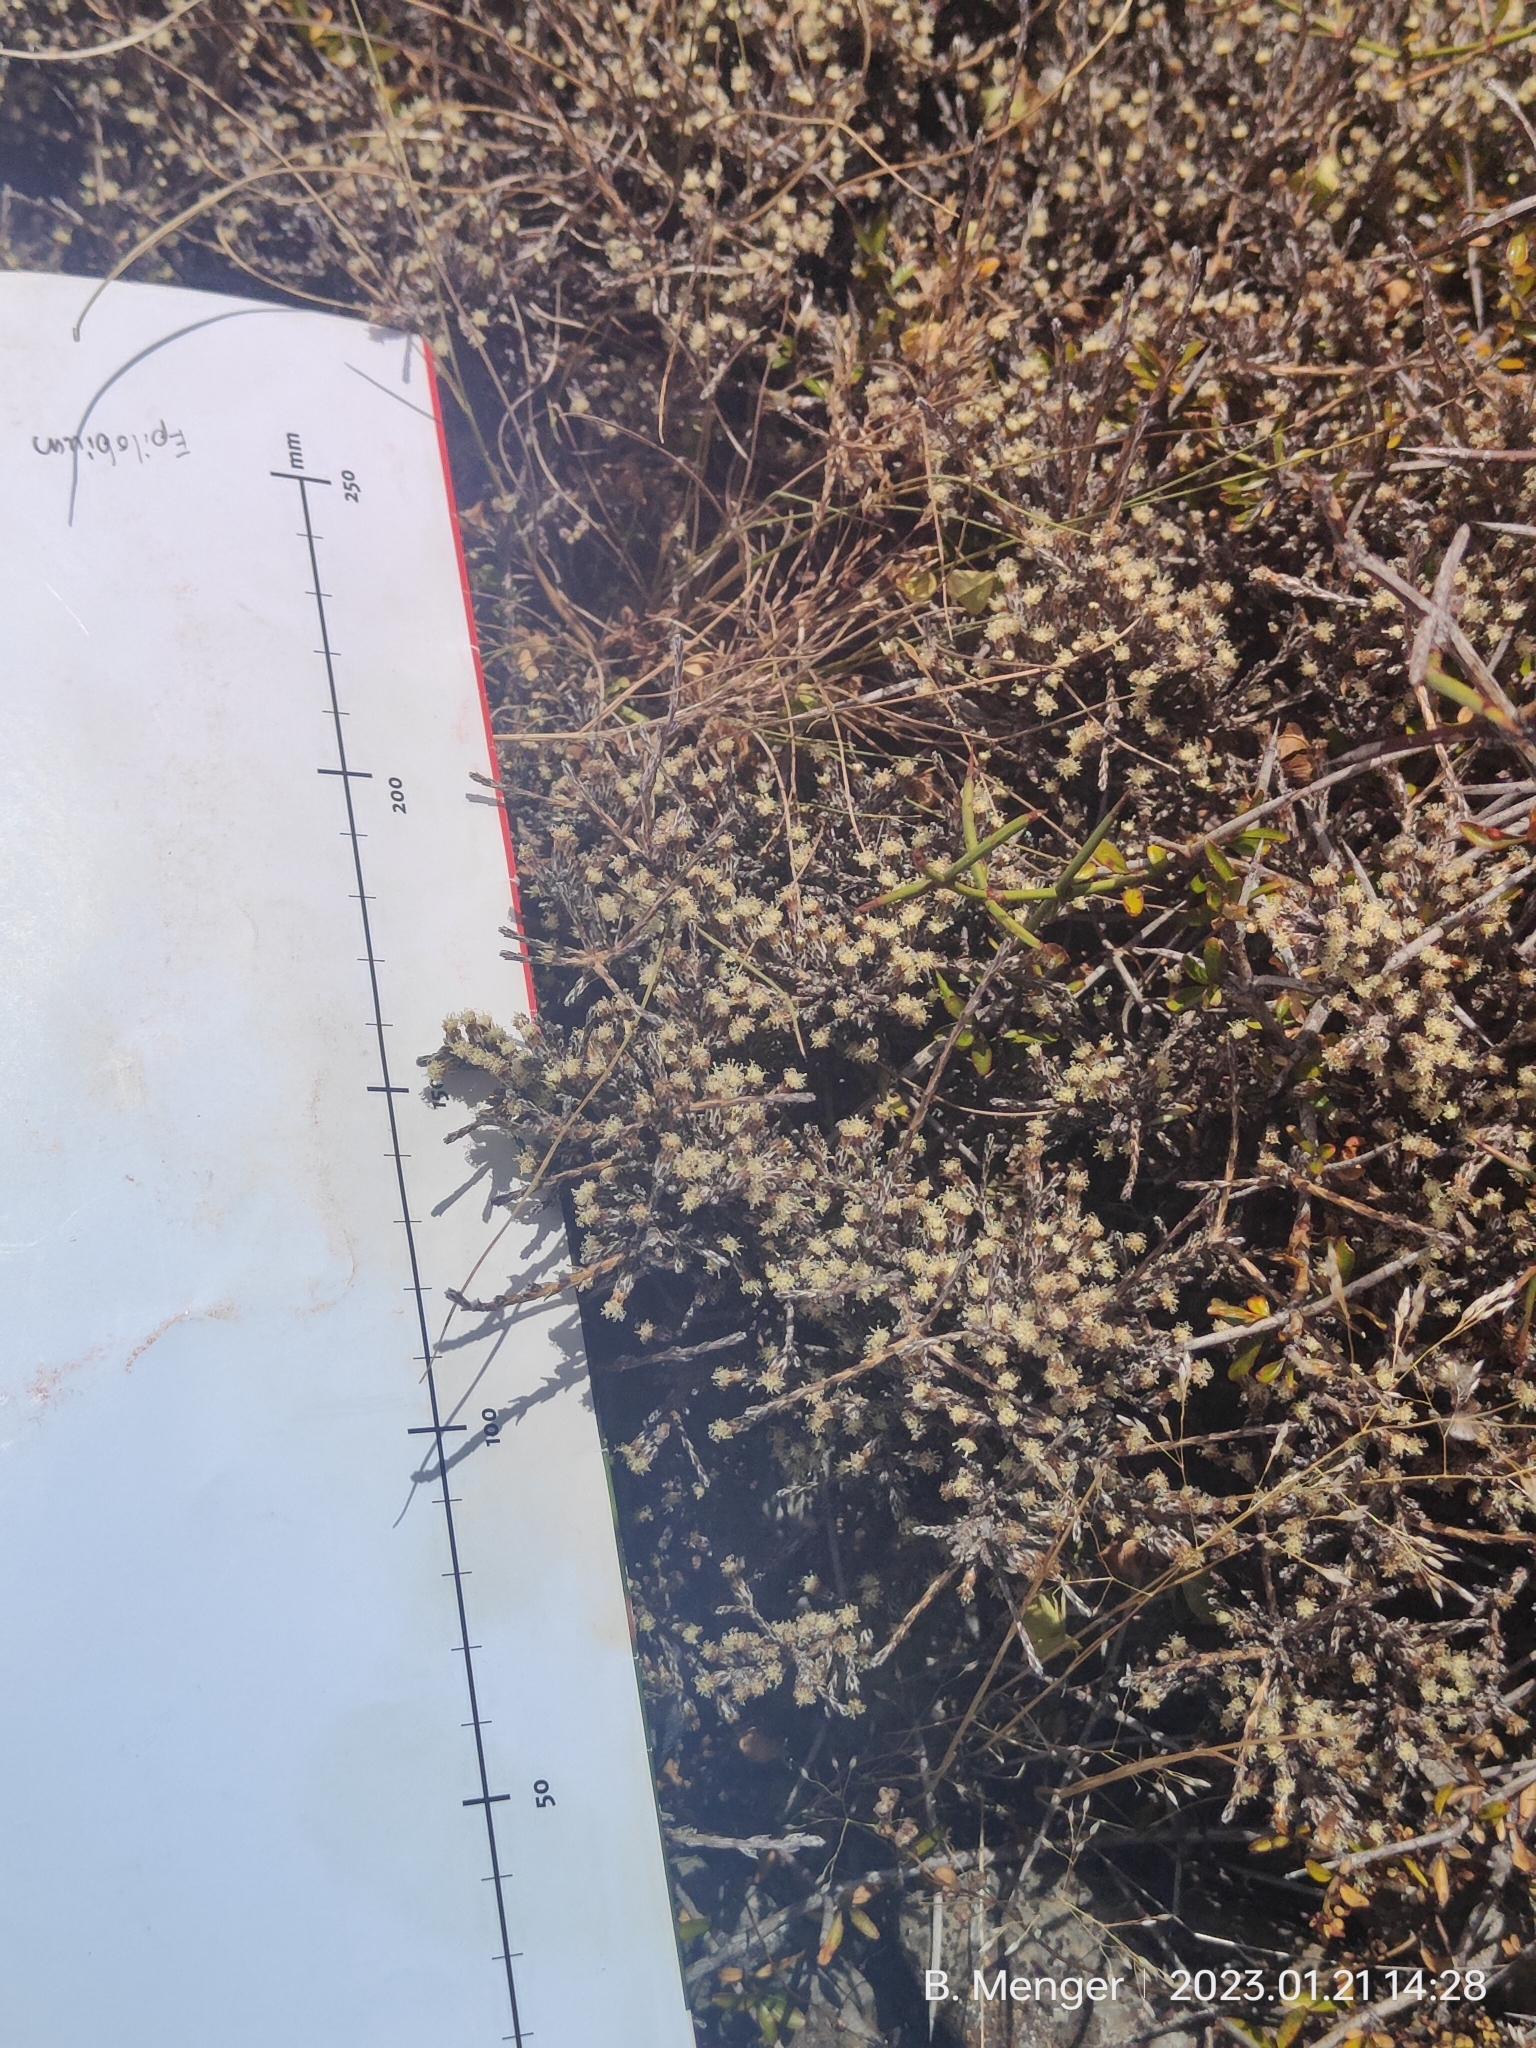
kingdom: Plantae
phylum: Tracheophyta
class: Magnoliopsida
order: Asterales
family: Asteraceae
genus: Ozothamnus
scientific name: Ozothamnus depressus
